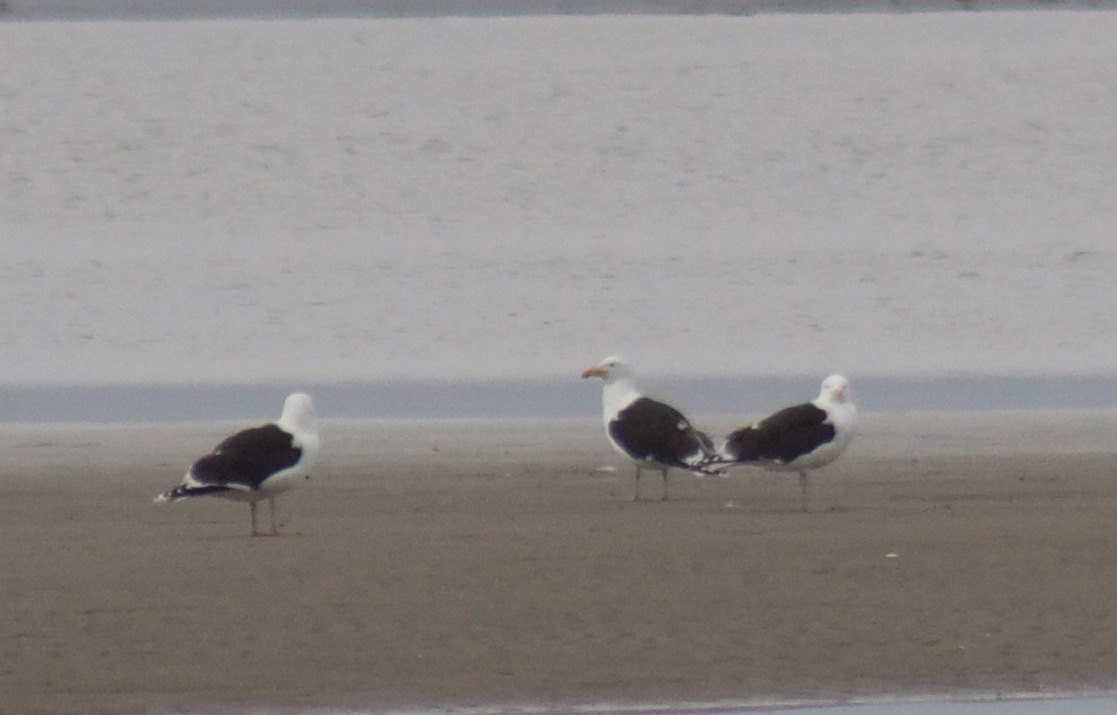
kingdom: Animalia
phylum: Chordata
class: Aves
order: Charadriiformes
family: Laridae
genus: Larus
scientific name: Larus marinus
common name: Great black-backed gull
